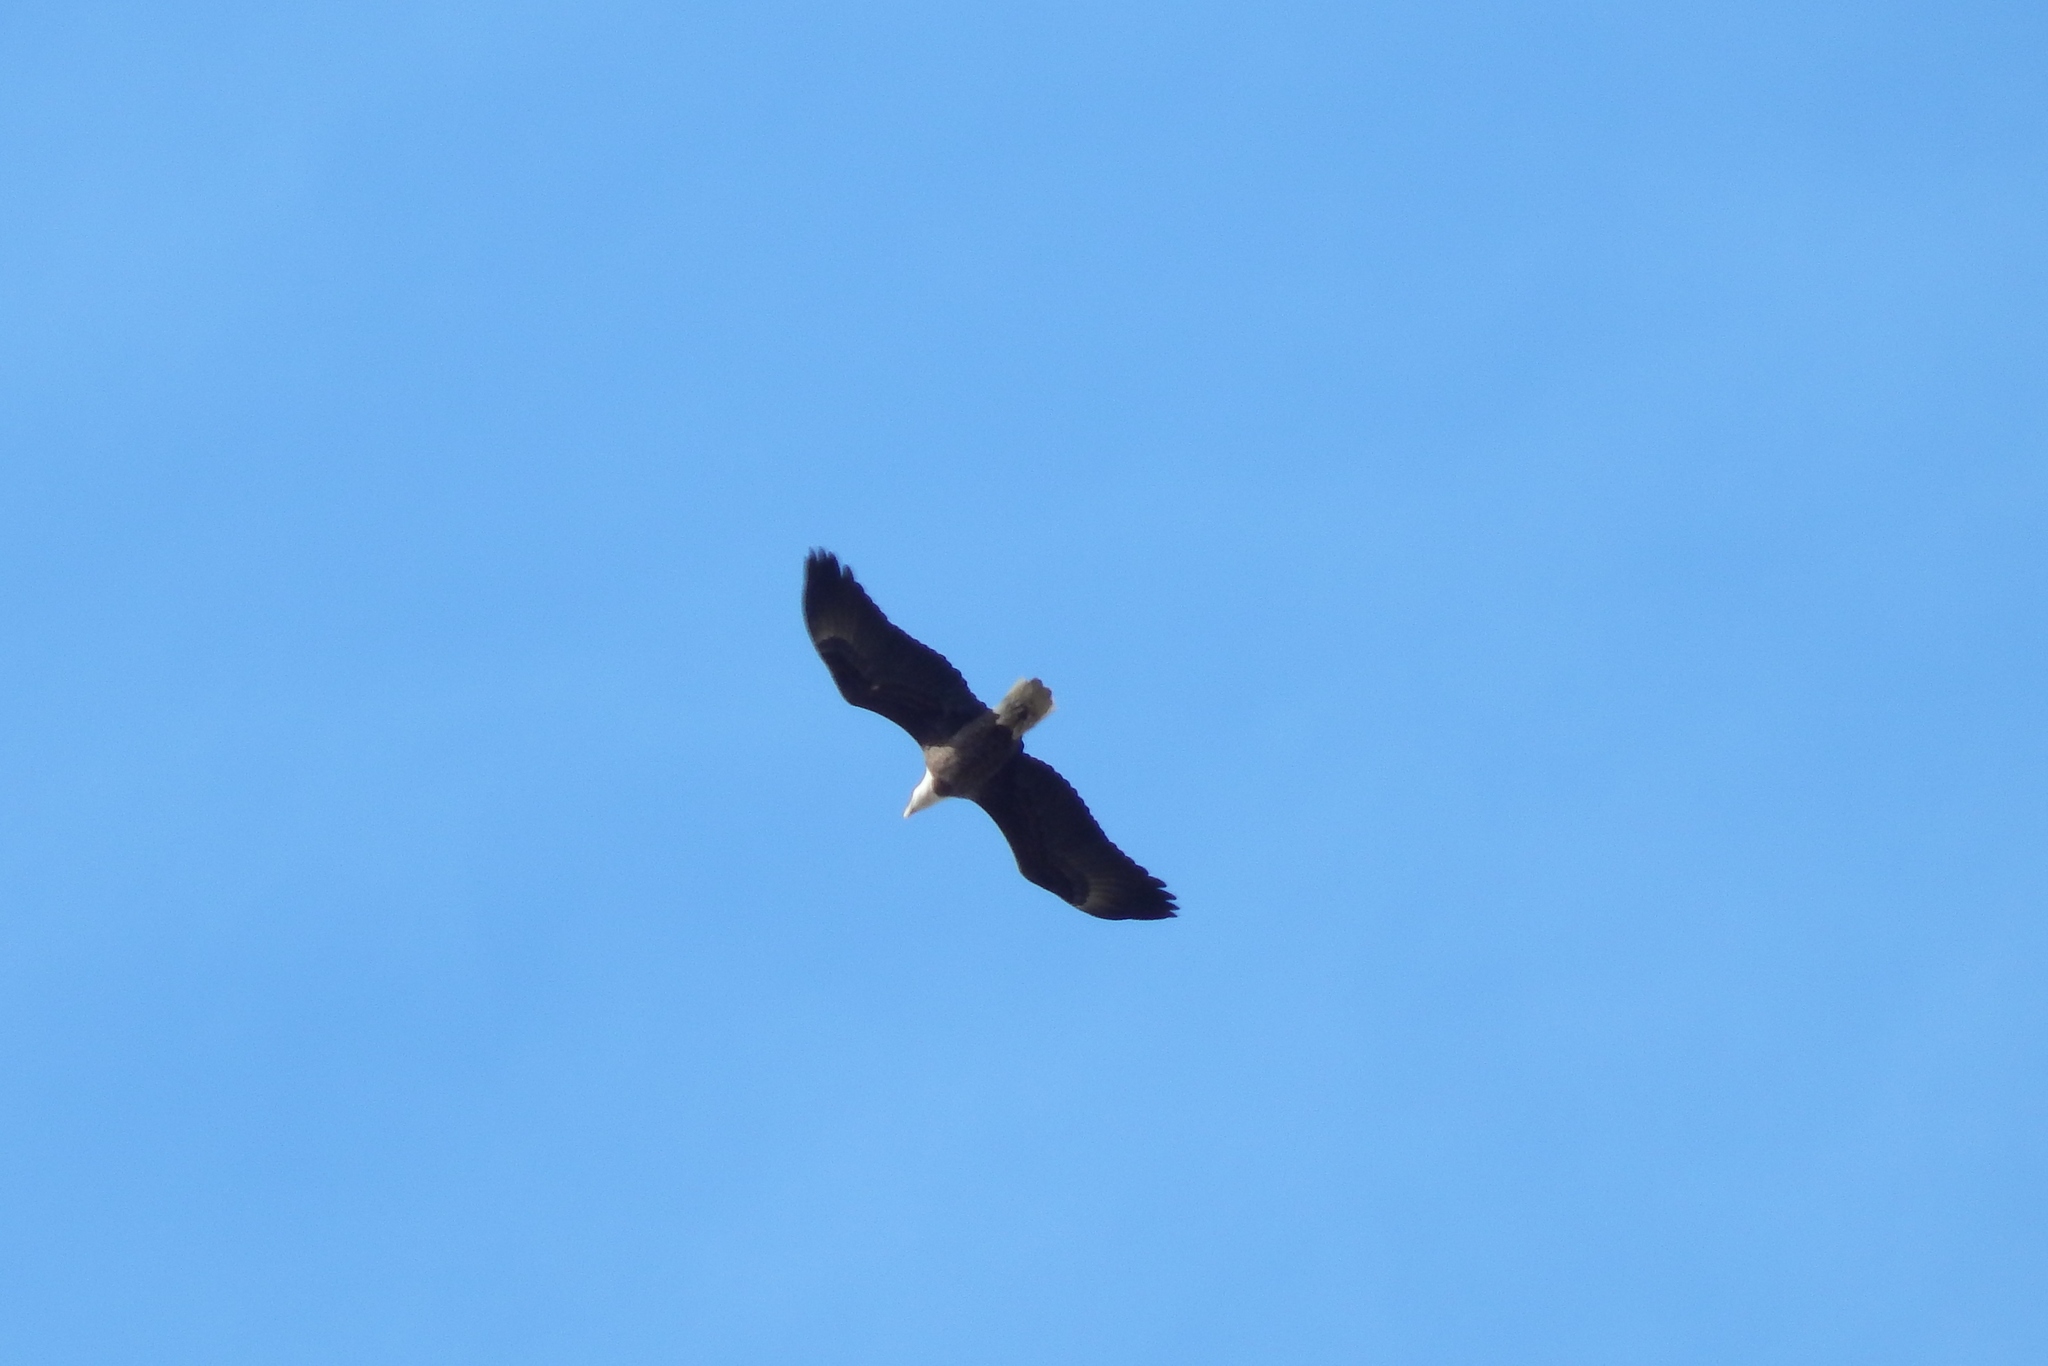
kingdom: Animalia
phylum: Chordata
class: Aves
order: Accipitriformes
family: Accipitridae
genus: Haliaeetus
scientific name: Haliaeetus leucocephalus
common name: Bald eagle
